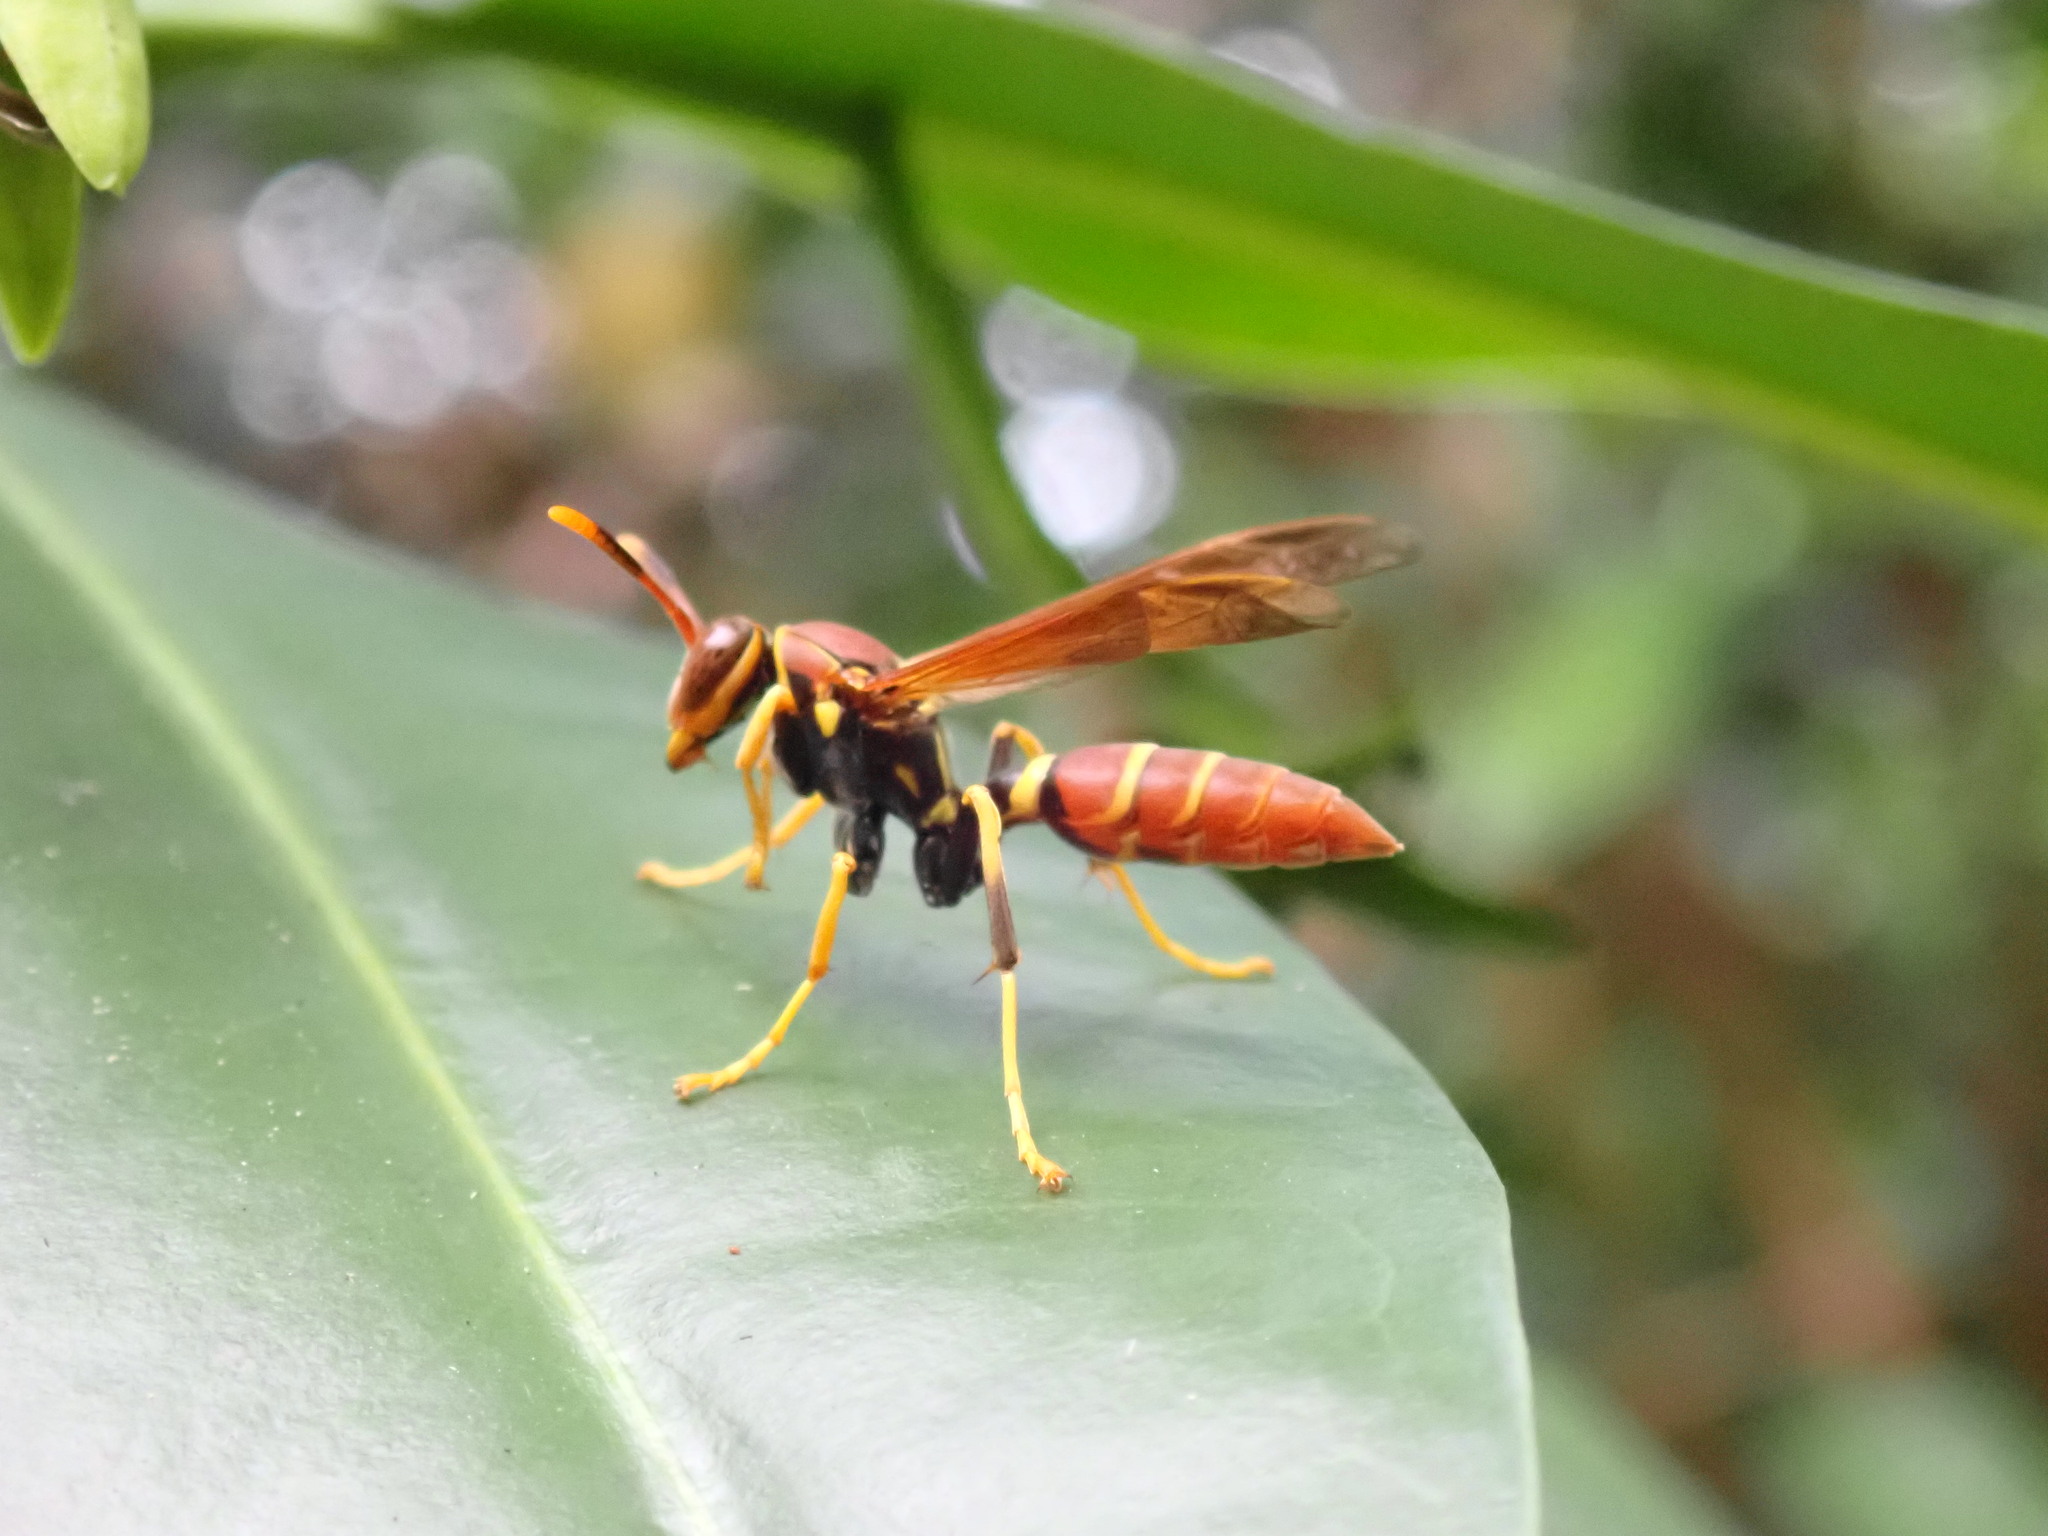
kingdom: Animalia
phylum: Arthropoda
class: Insecta
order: Hymenoptera
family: Eumenidae
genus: Polistes
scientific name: Polistes crinitus
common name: Jack spaniard
